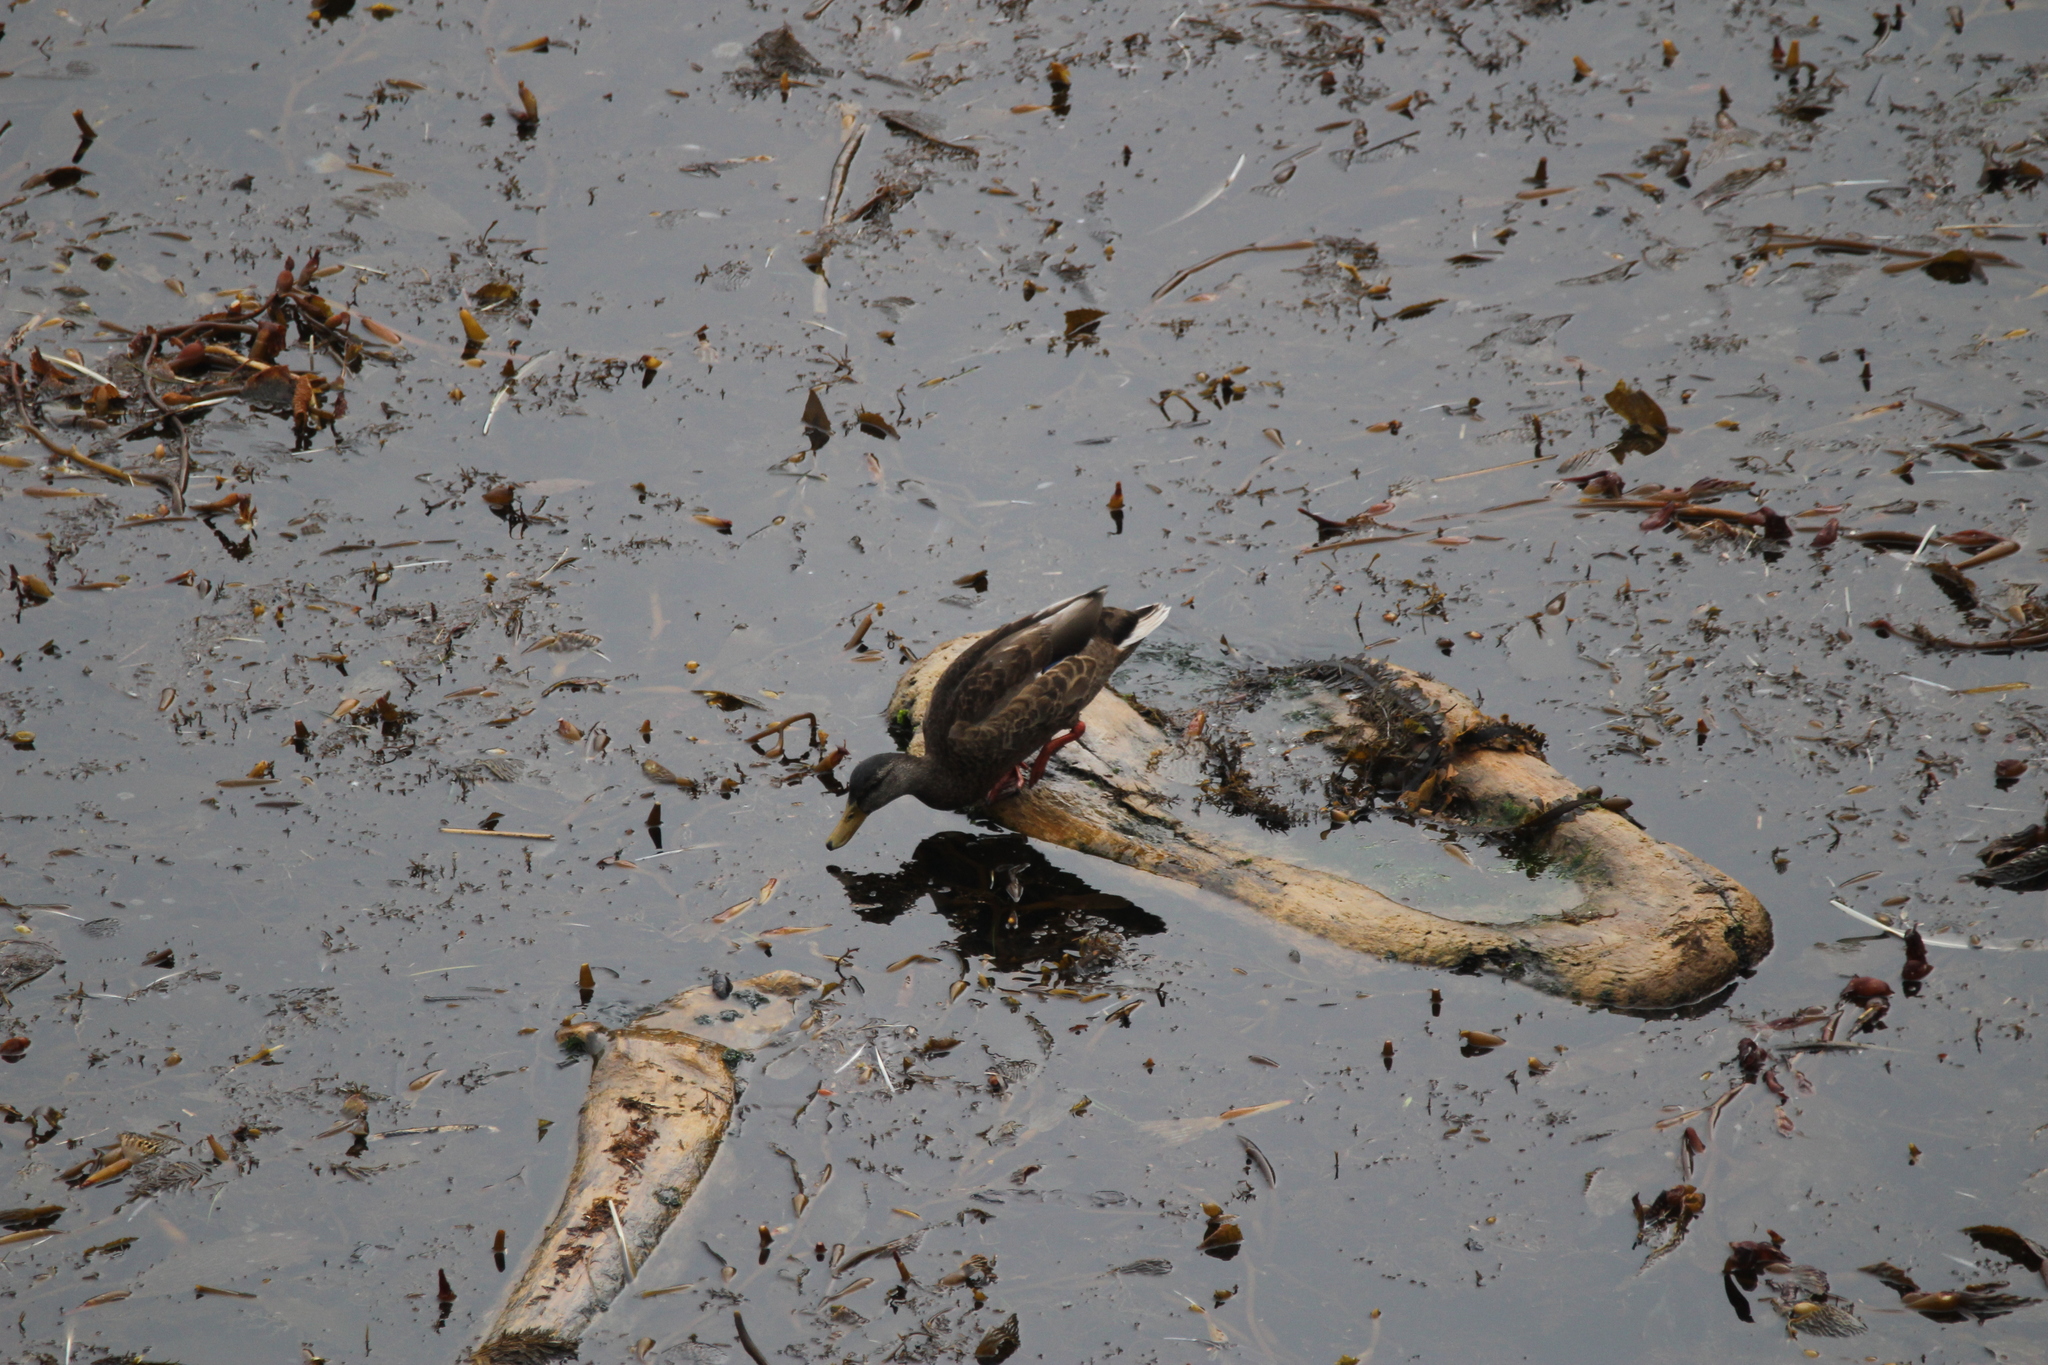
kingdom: Animalia
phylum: Chordata
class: Aves
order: Anseriformes
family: Anatidae
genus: Anas
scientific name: Anas platyrhynchos
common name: Mallard
